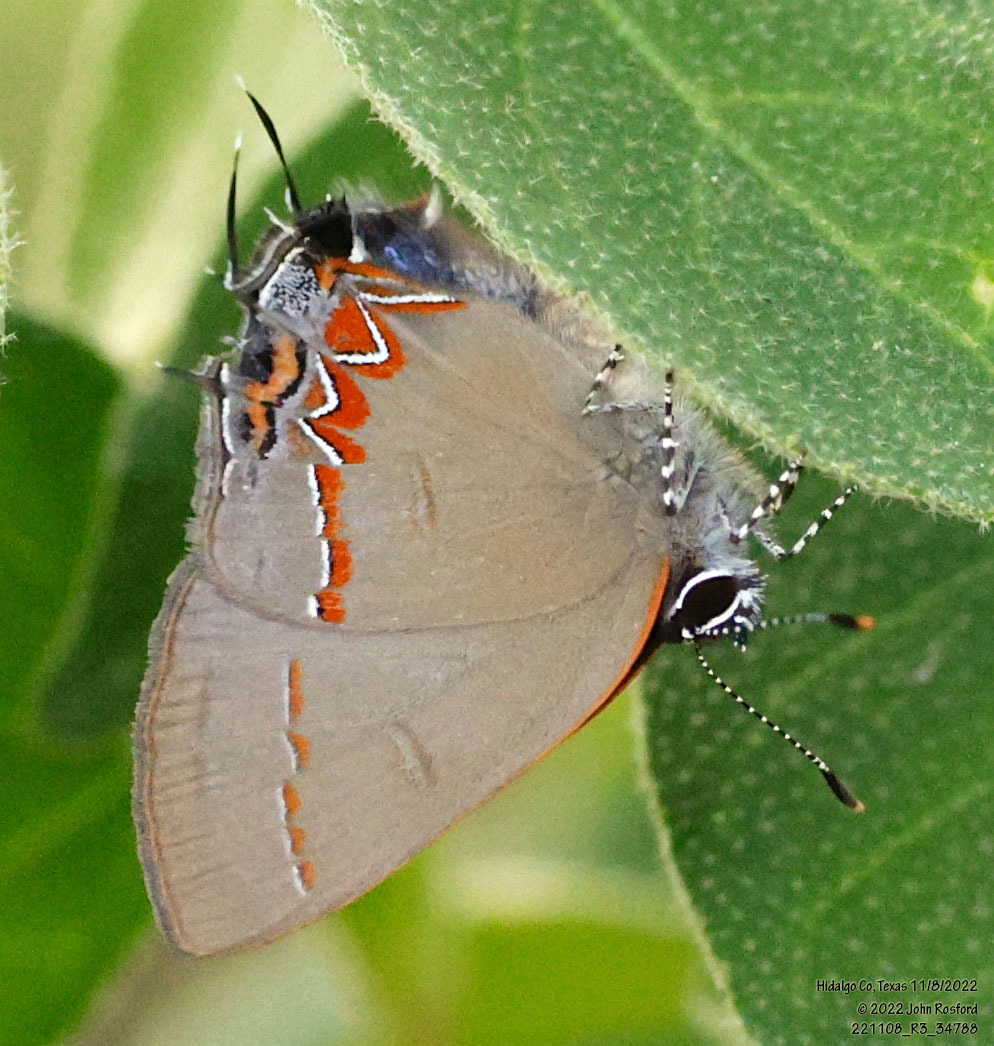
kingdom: Animalia
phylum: Arthropoda
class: Insecta
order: Lepidoptera
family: Lycaenidae
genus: Calycopis
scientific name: Calycopis isobeon
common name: Dusky-blue groundstreak
